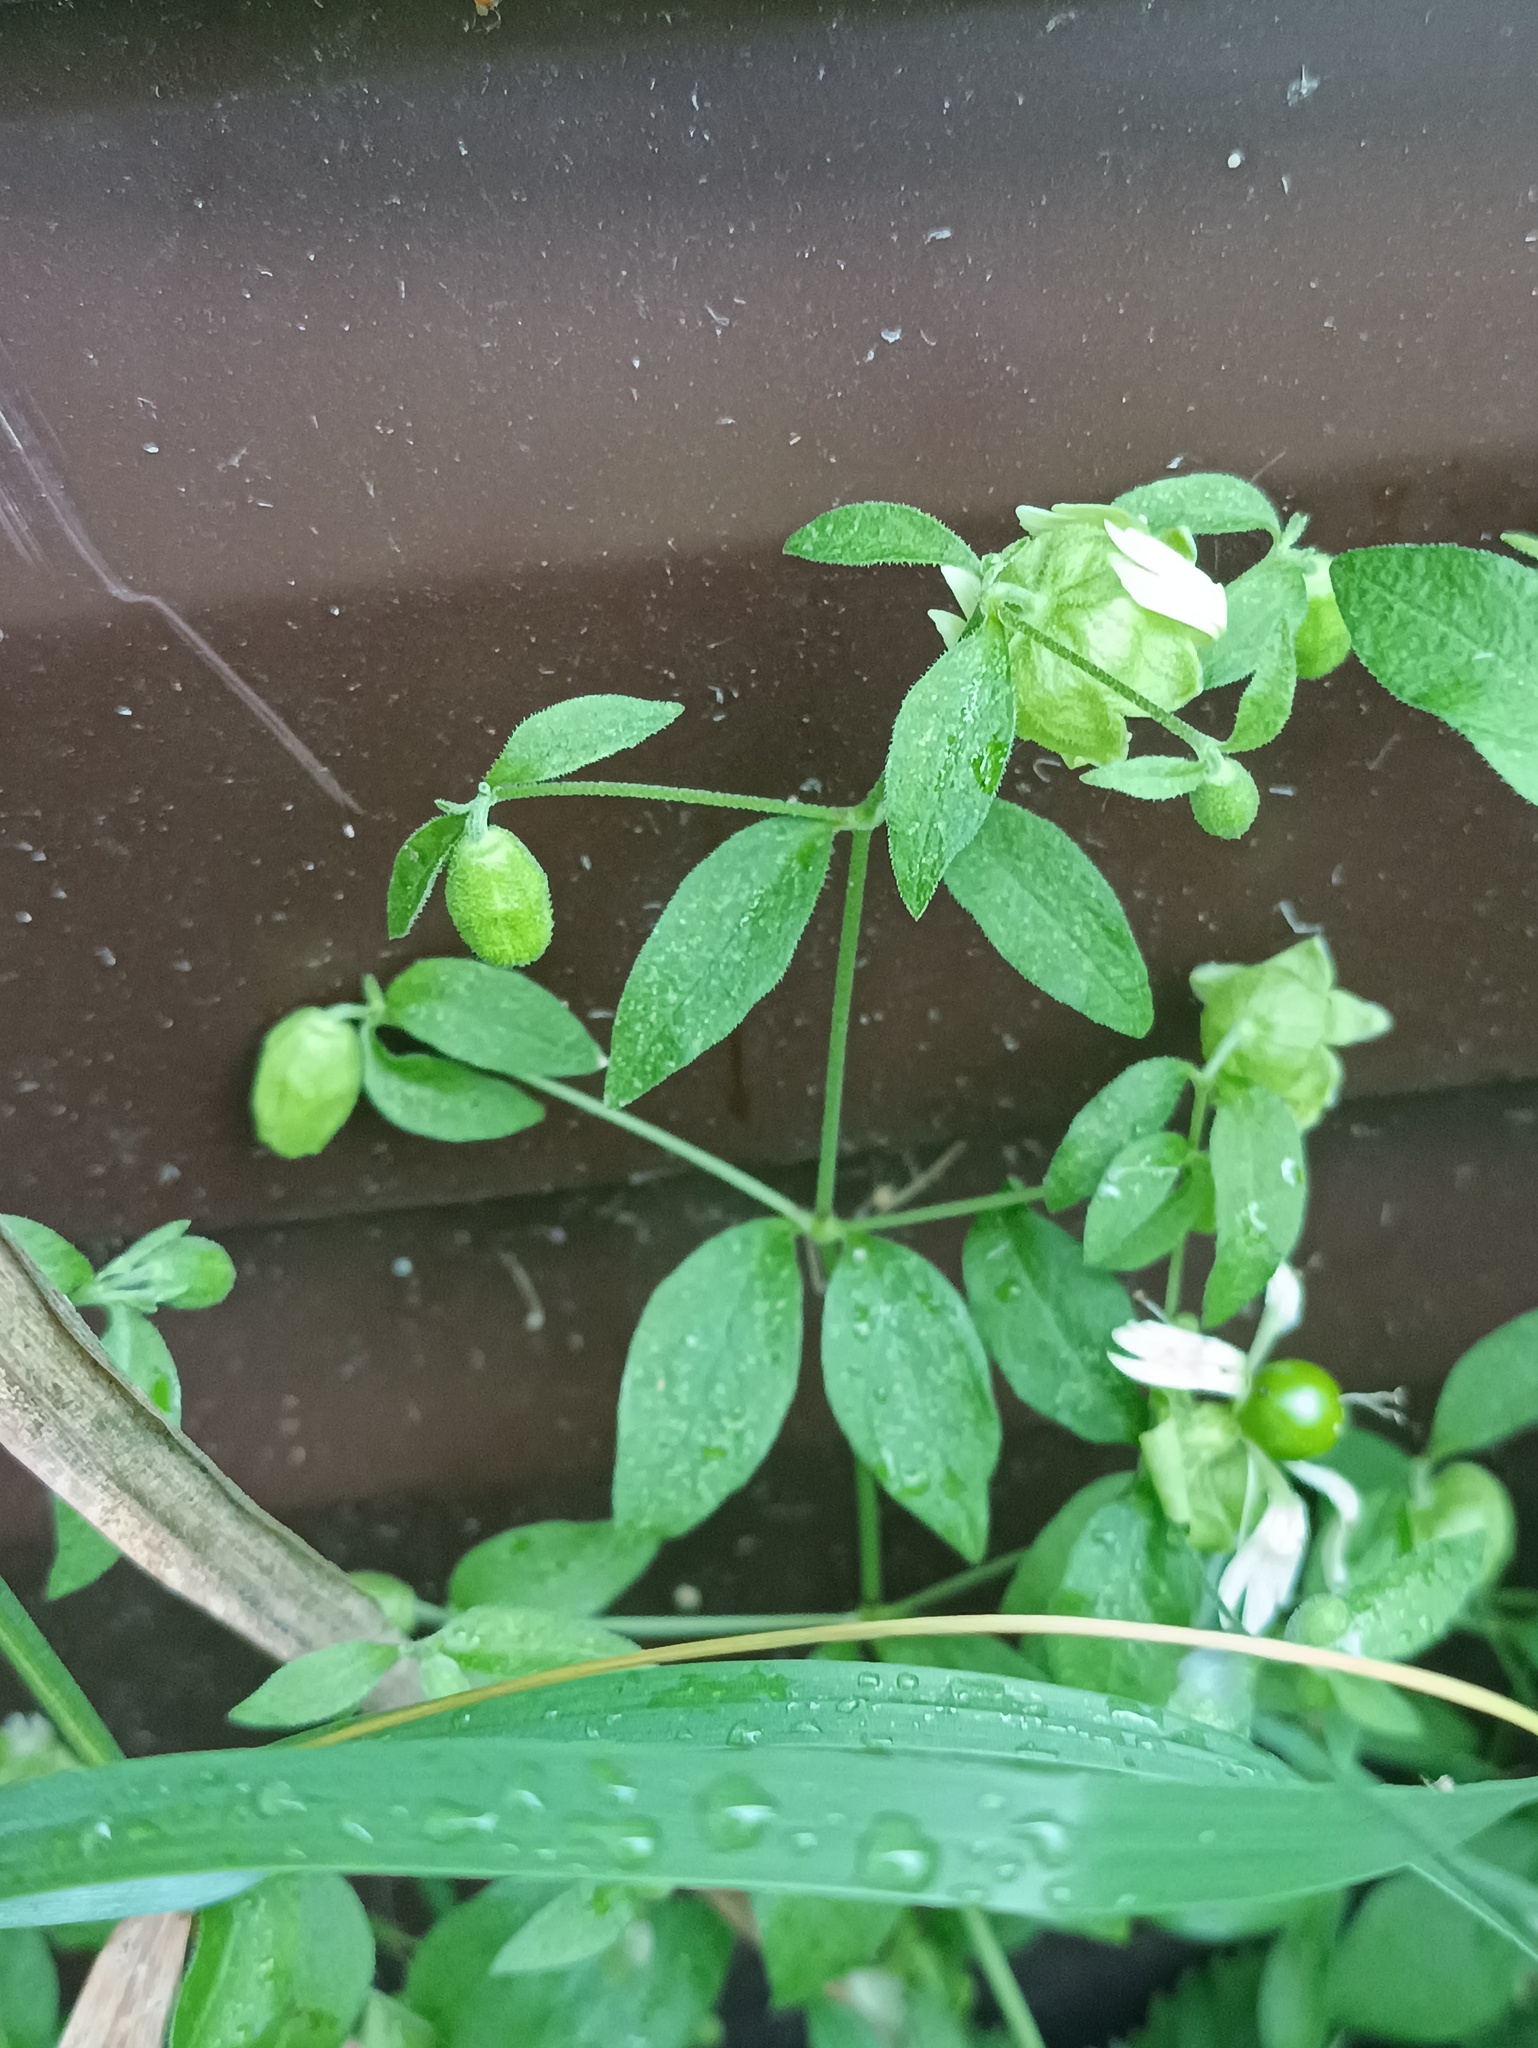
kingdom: Plantae
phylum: Tracheophyta
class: Magnoliopsida
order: Caryophyllales
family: Caryophyllaceae
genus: Silene
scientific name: Silene baccifera
